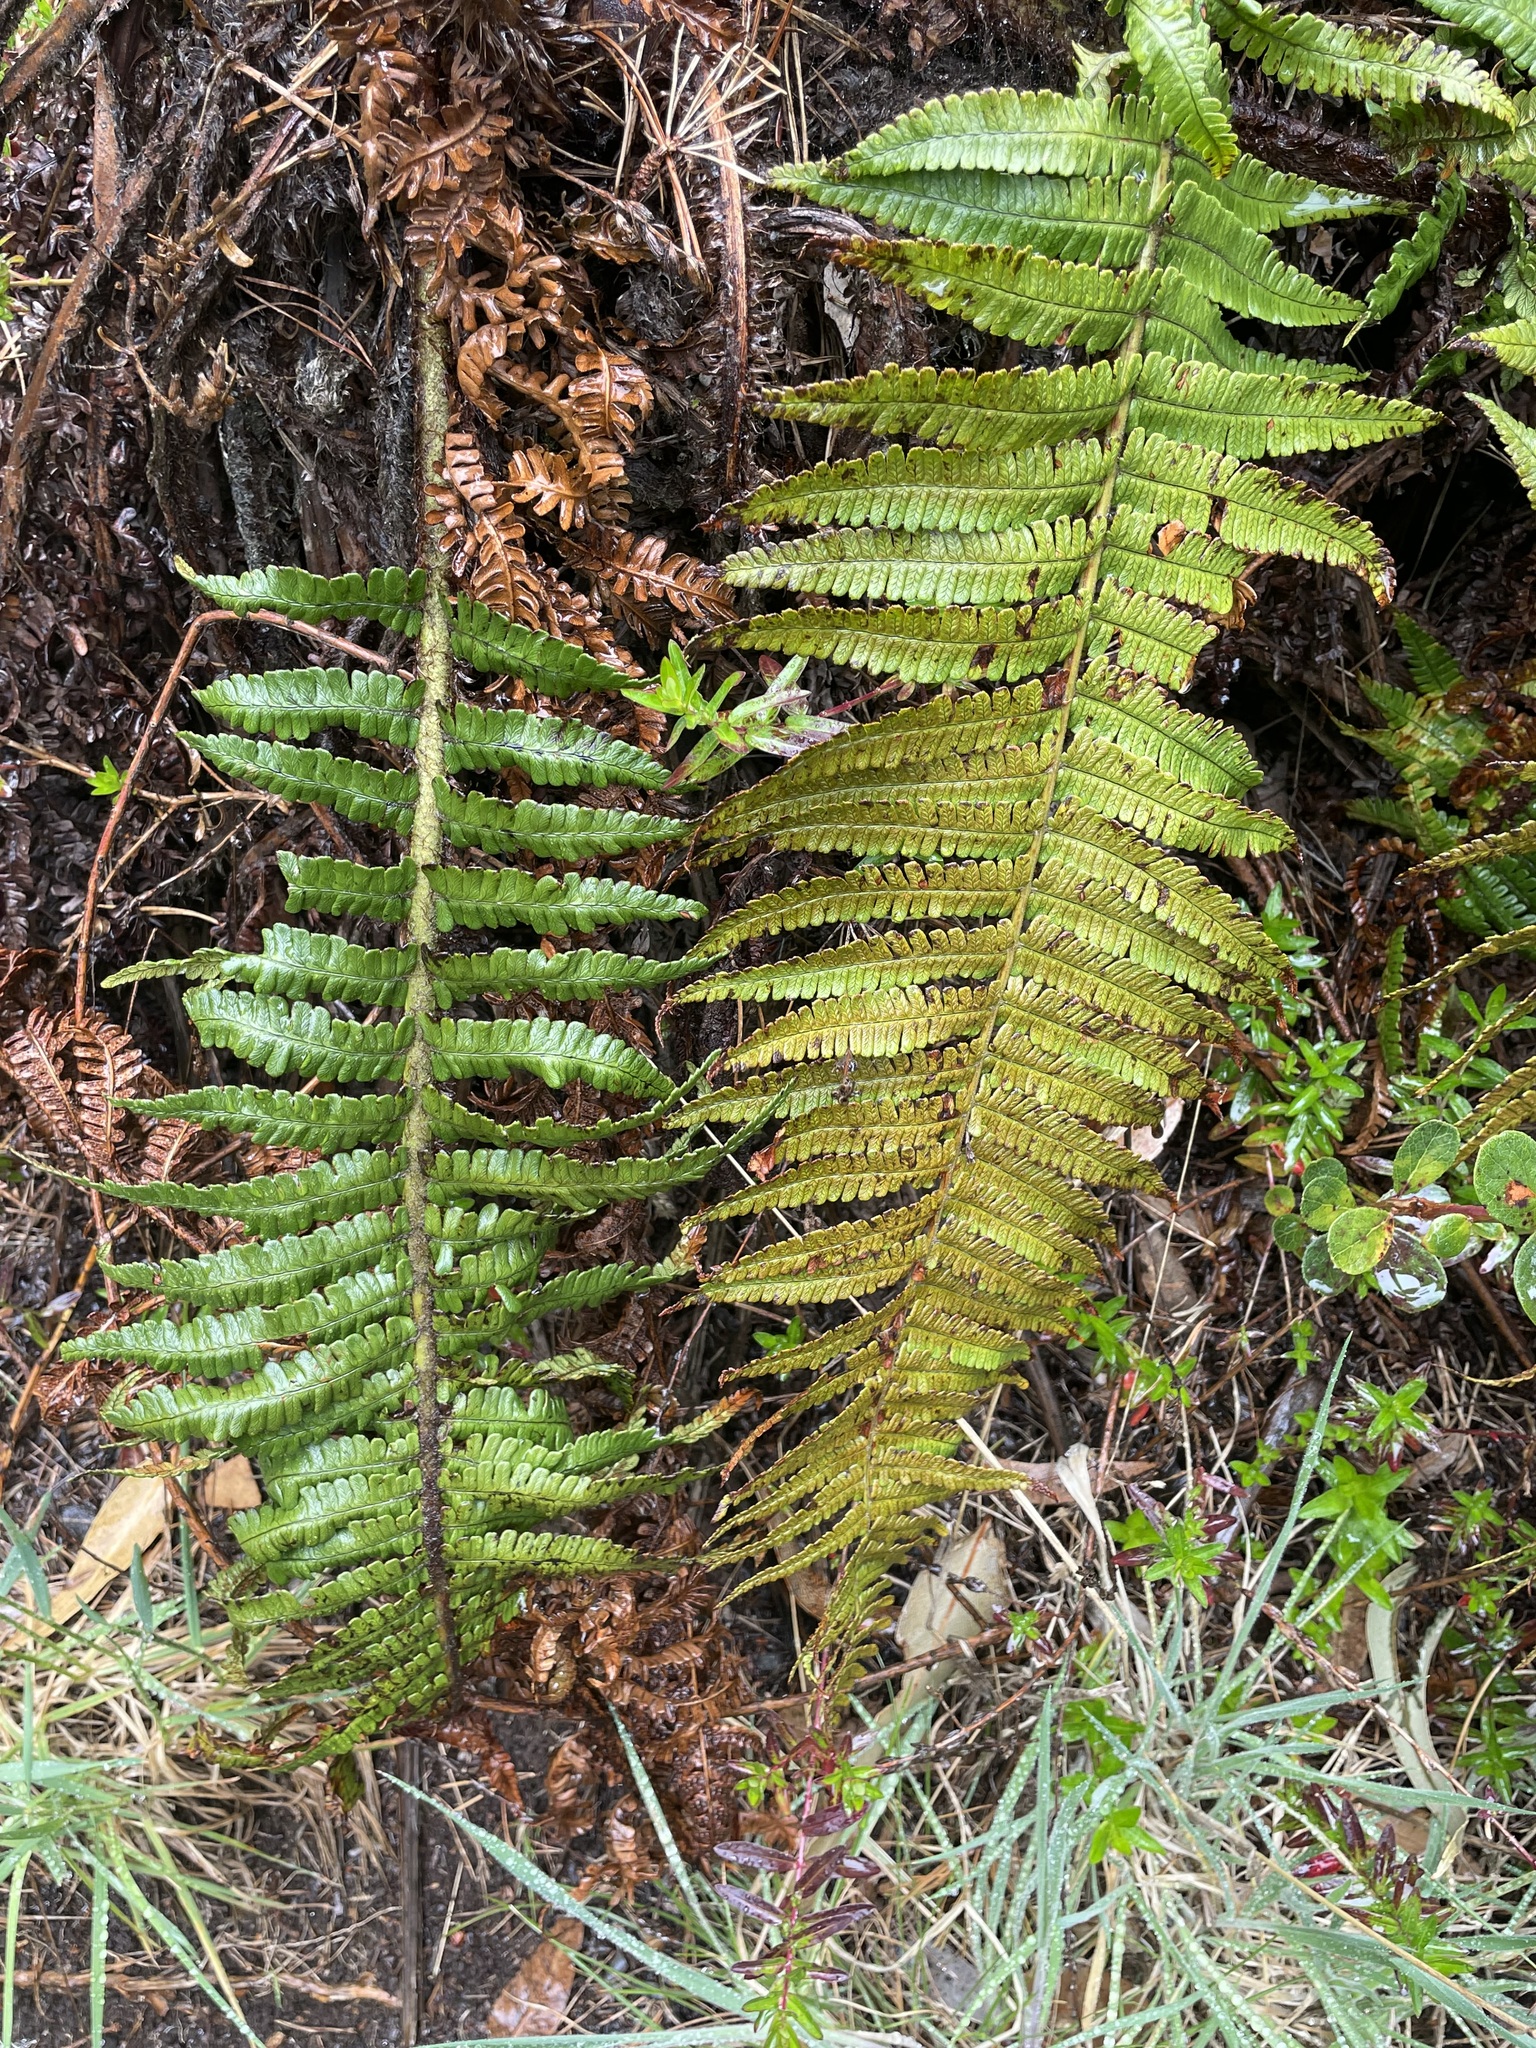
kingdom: Plantae
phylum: Tracheophyta
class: Polypodiopsida
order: Polypodiales
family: Dryopteridaceae
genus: Dryopteris
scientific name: Dryopteris wallichiana
